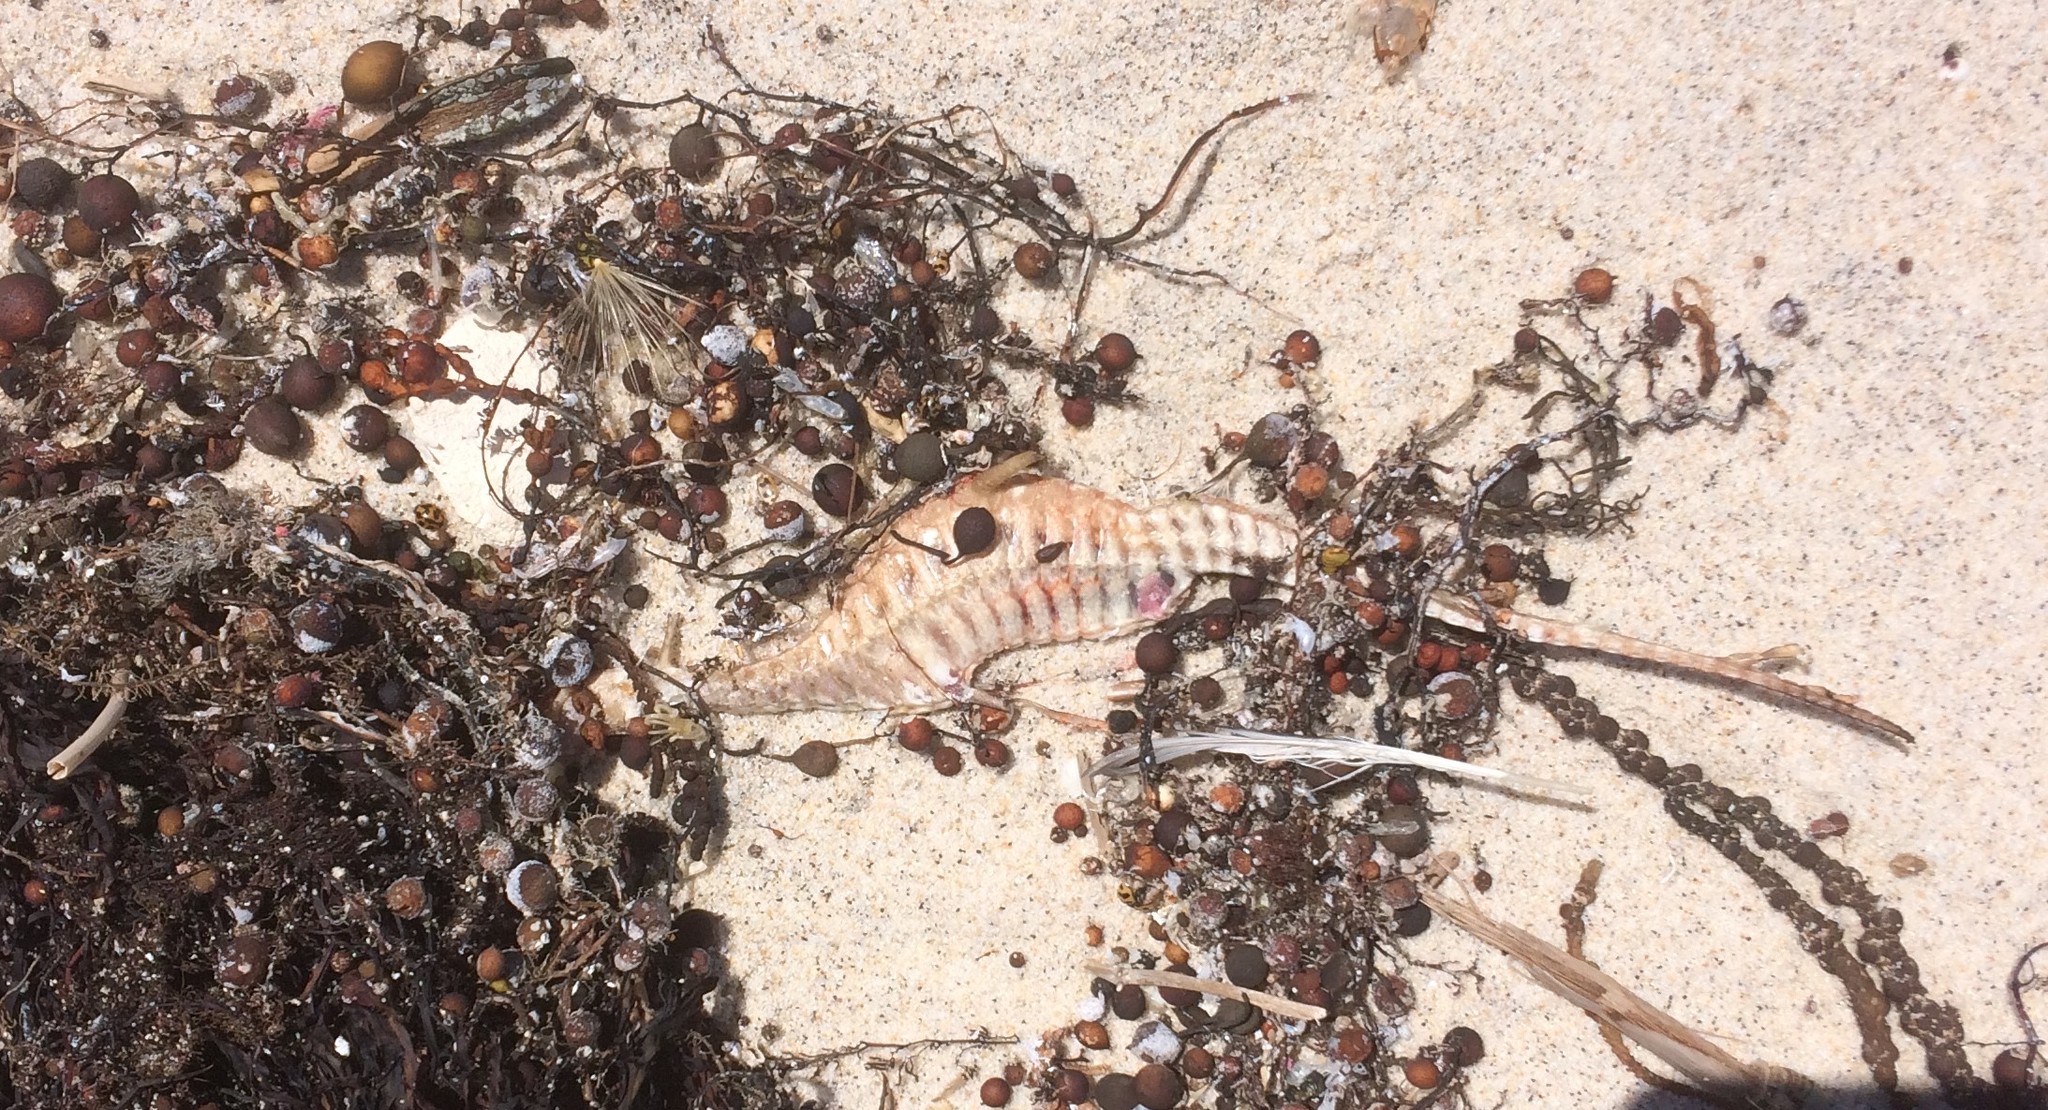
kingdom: Animalia
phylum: Chordata
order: Syngnathiformes
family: Syngnathidae
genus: Phyllopteryx
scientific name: Phyllopteryx taeniolatus
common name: Common seadragon
